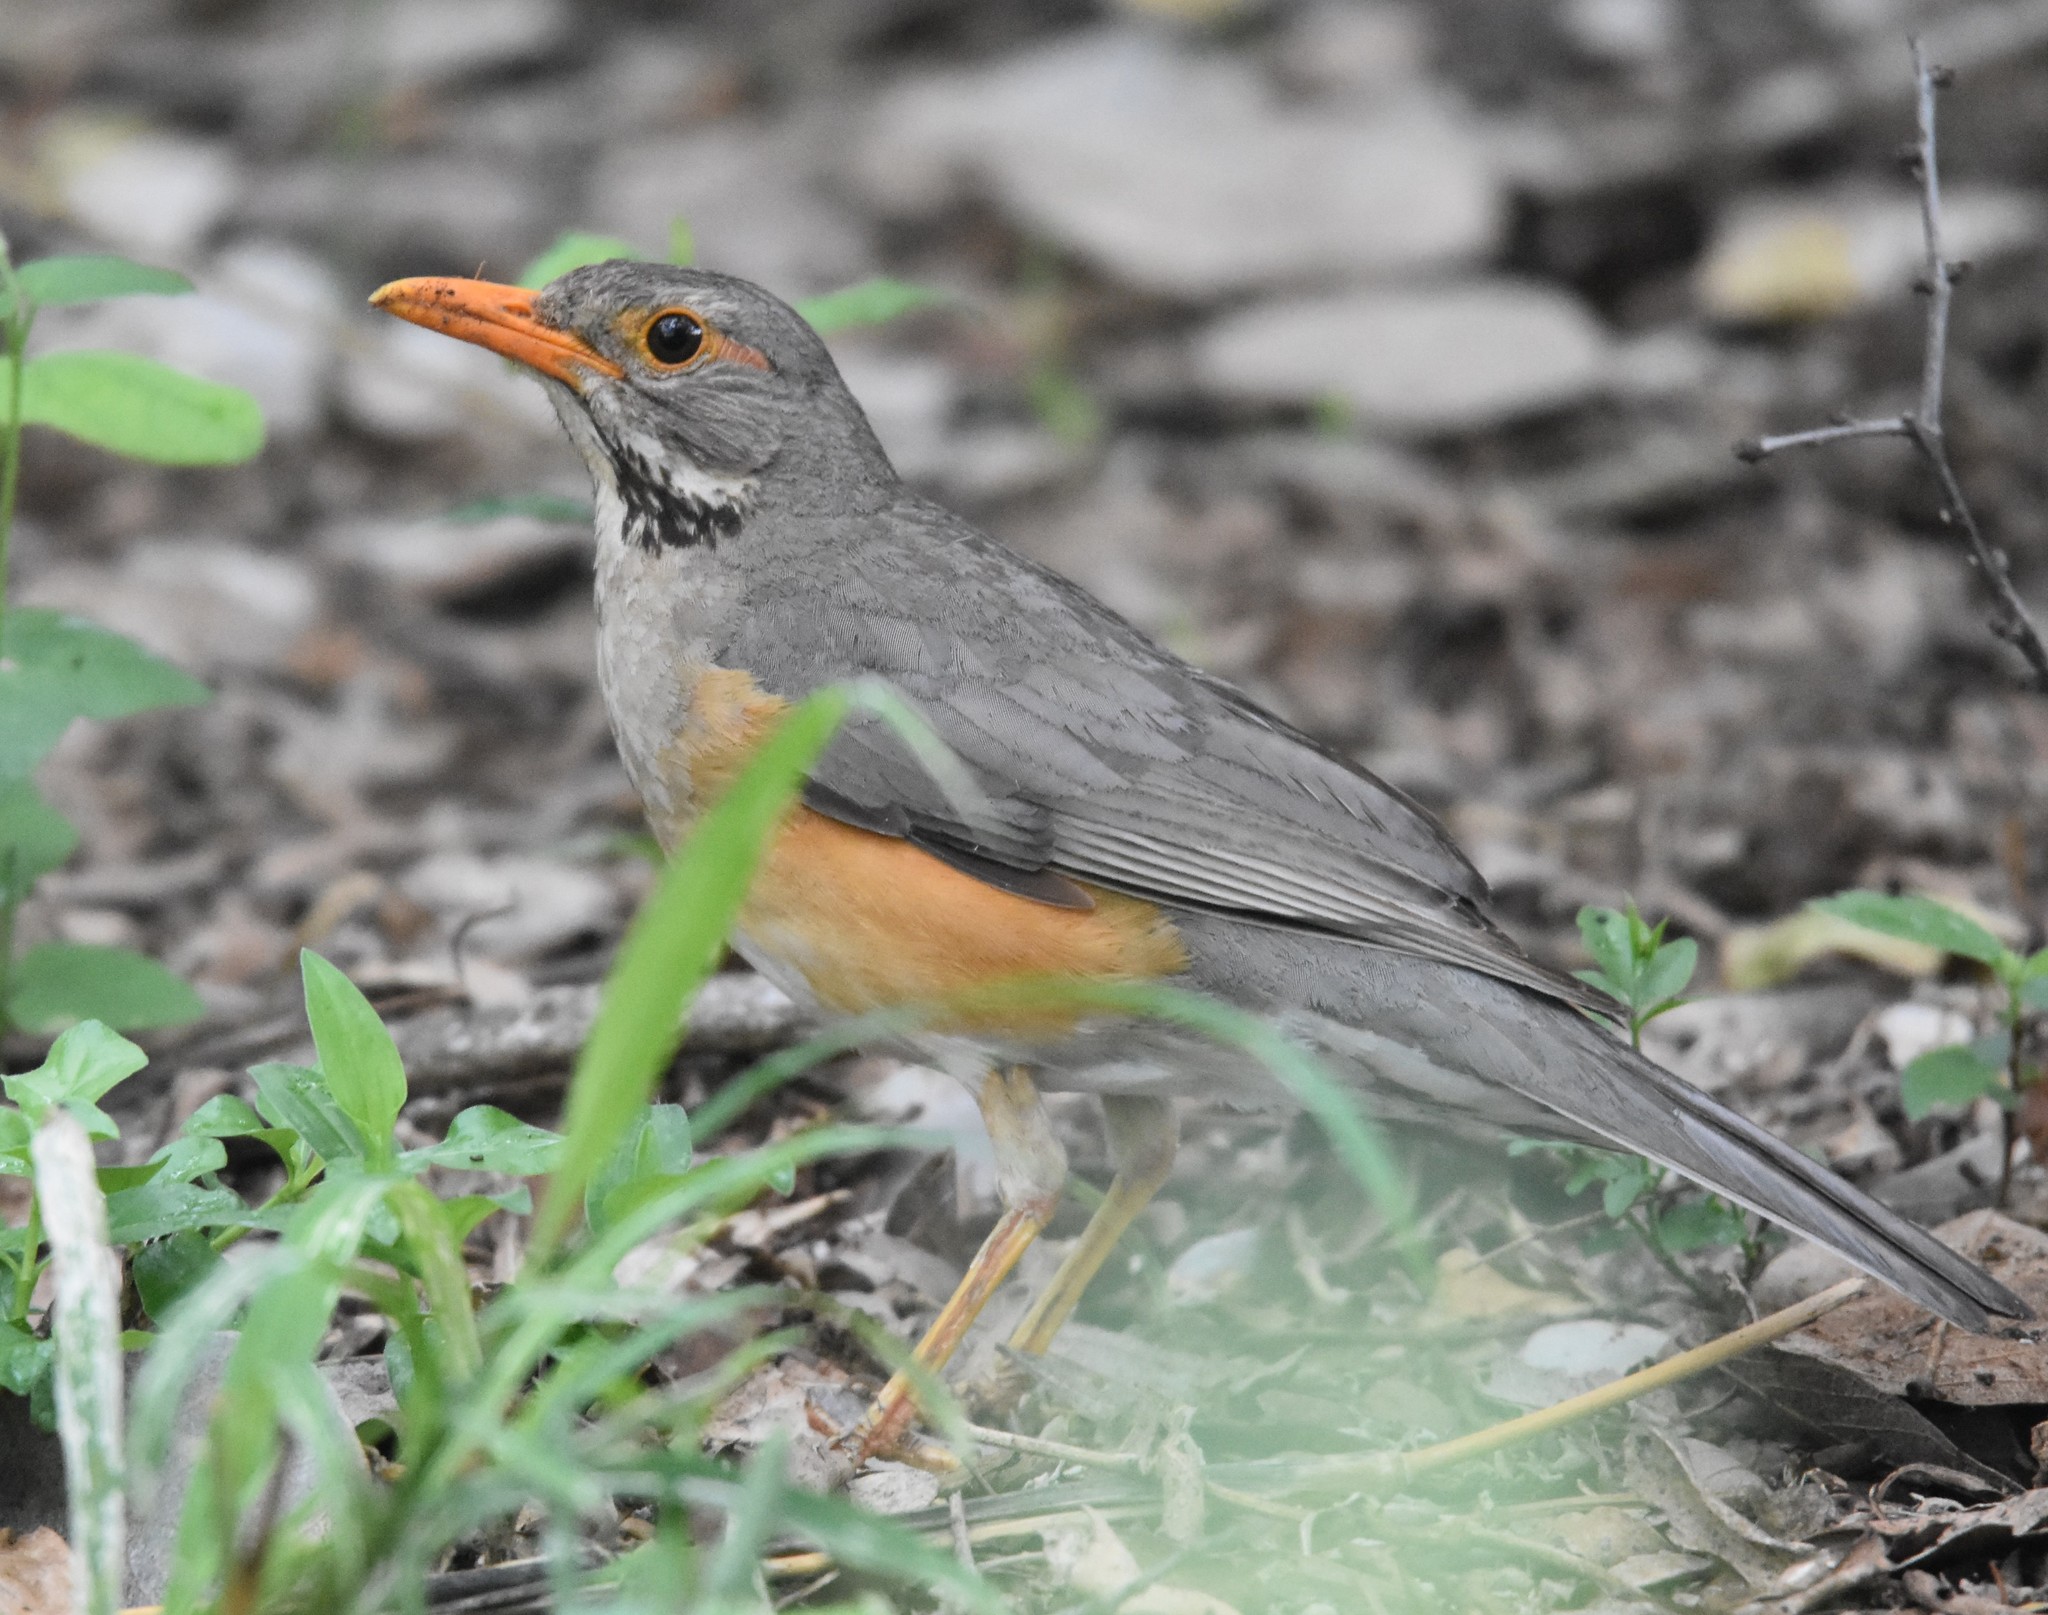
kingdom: Animalia
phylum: Chordata
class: Aves
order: Passeriformes
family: Turdidae
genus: Turdus
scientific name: Turdus libonyana
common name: Kurrichane thrush
